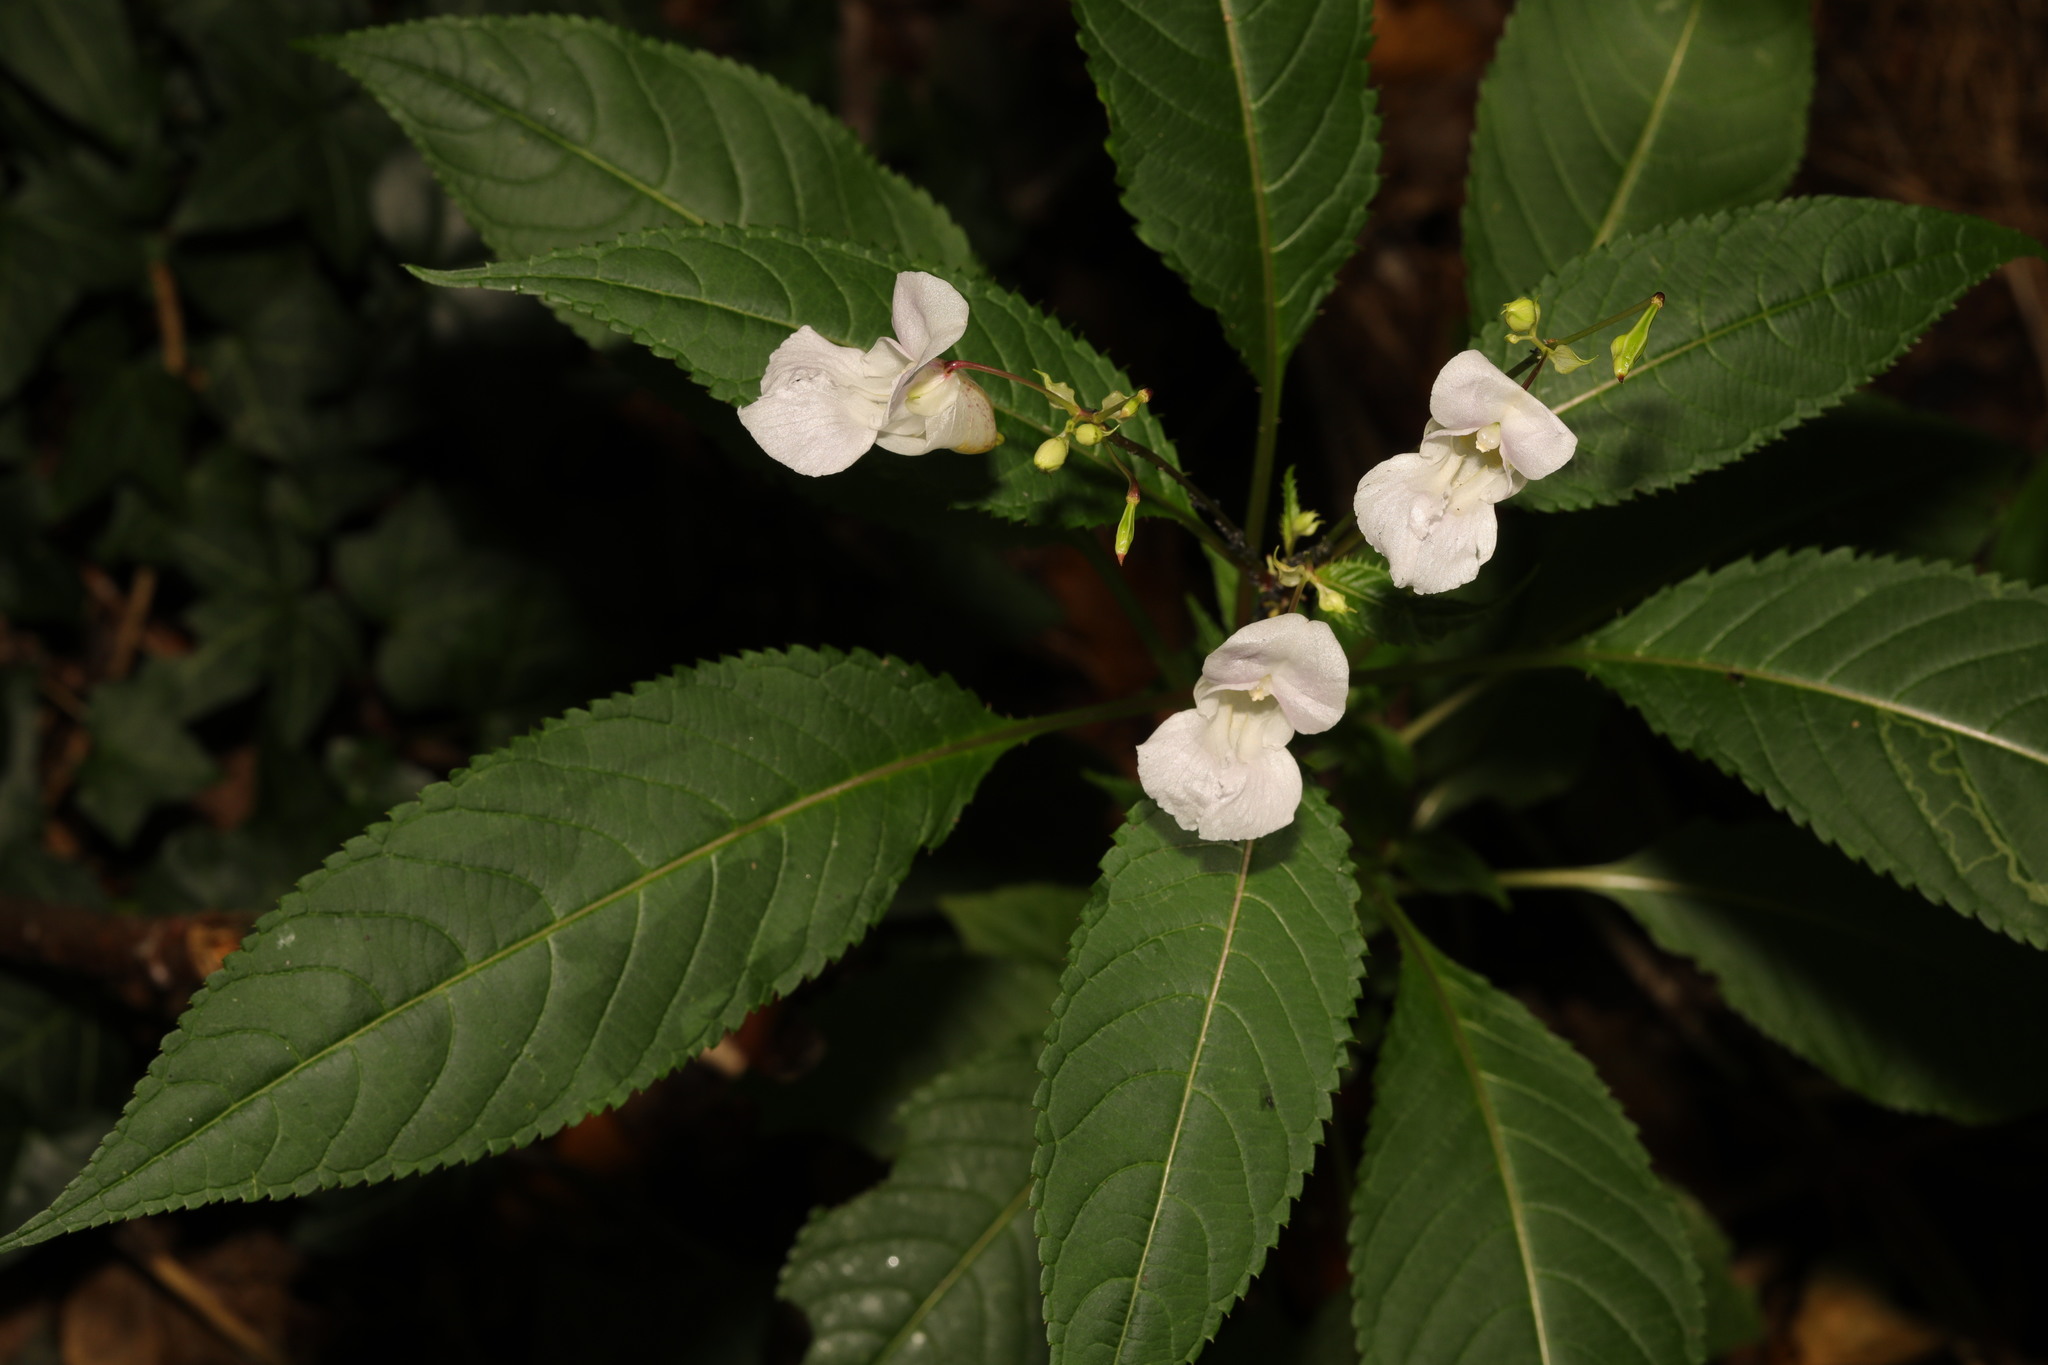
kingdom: Plantae
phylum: Tracheophyta
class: Magnoliopsida
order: Ericales
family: Balsaminaceae
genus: Impatiens
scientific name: Impatiens glandulifera
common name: Himalayan balsam
